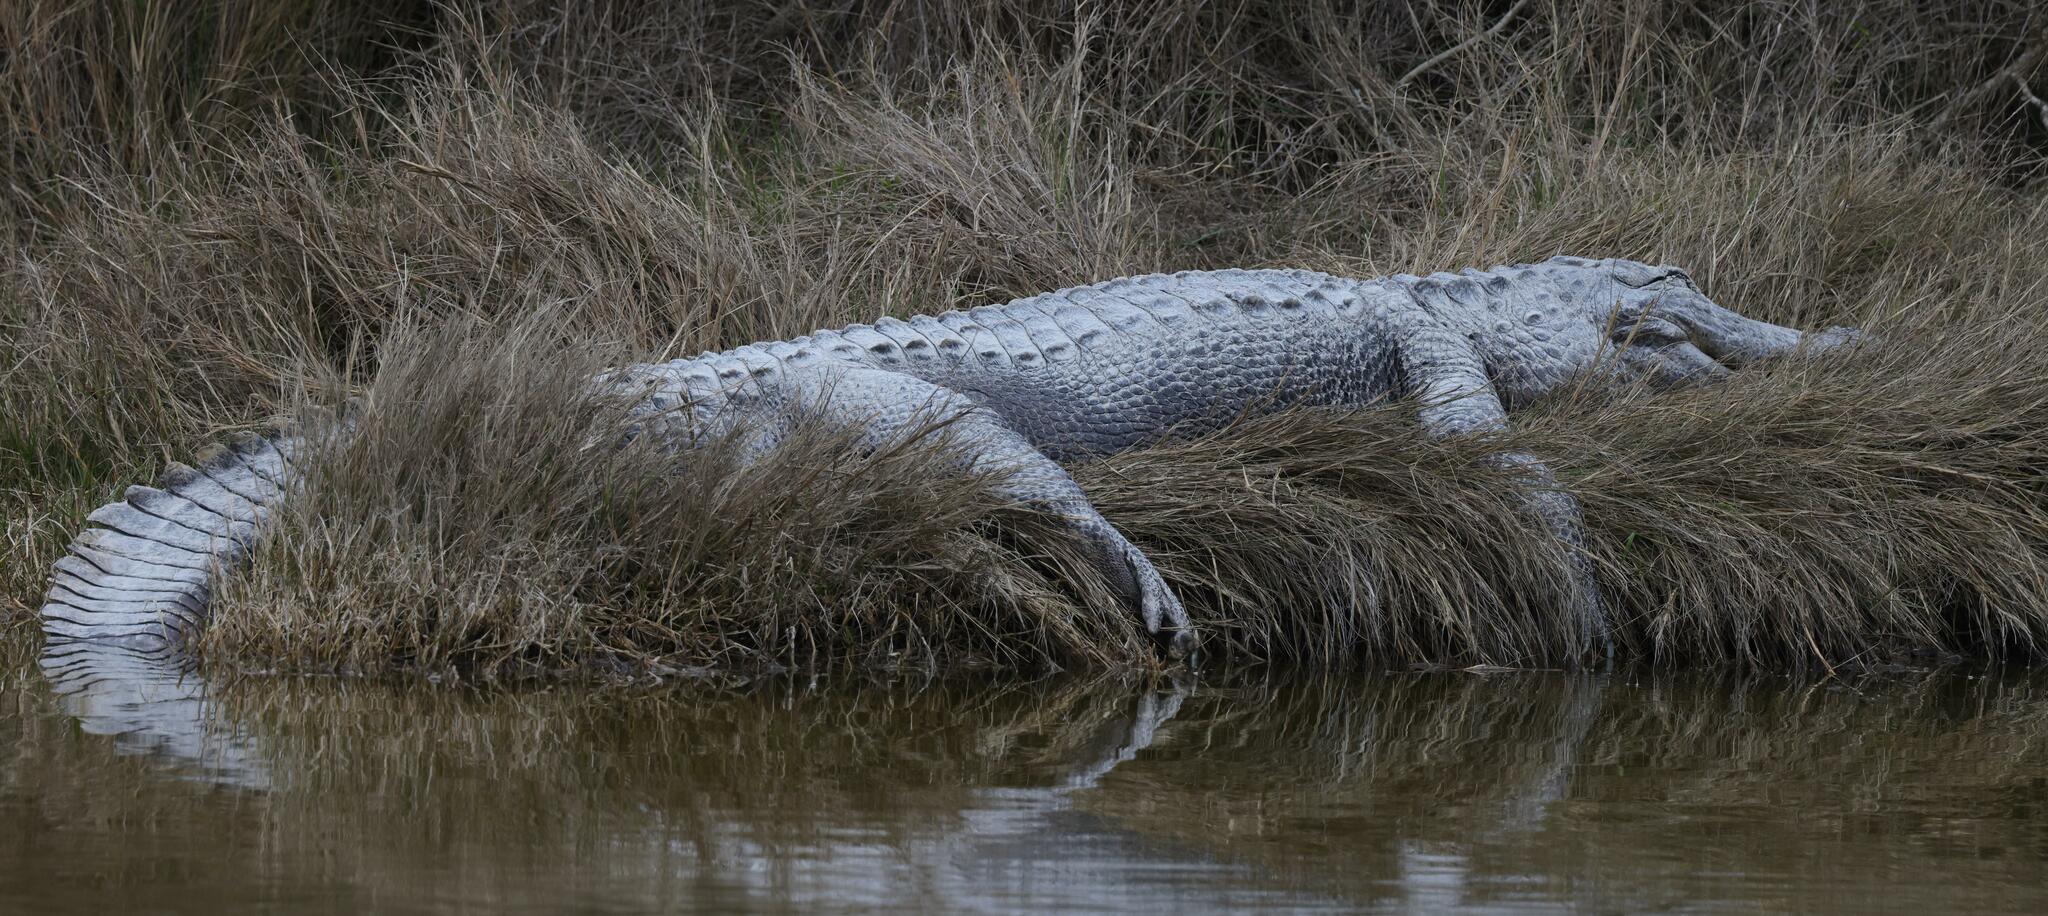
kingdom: Animalia
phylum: Chordata
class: Crocodylia
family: Alligatoridae
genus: Alligator
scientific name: Alligator mississippiensis
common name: American alligator
